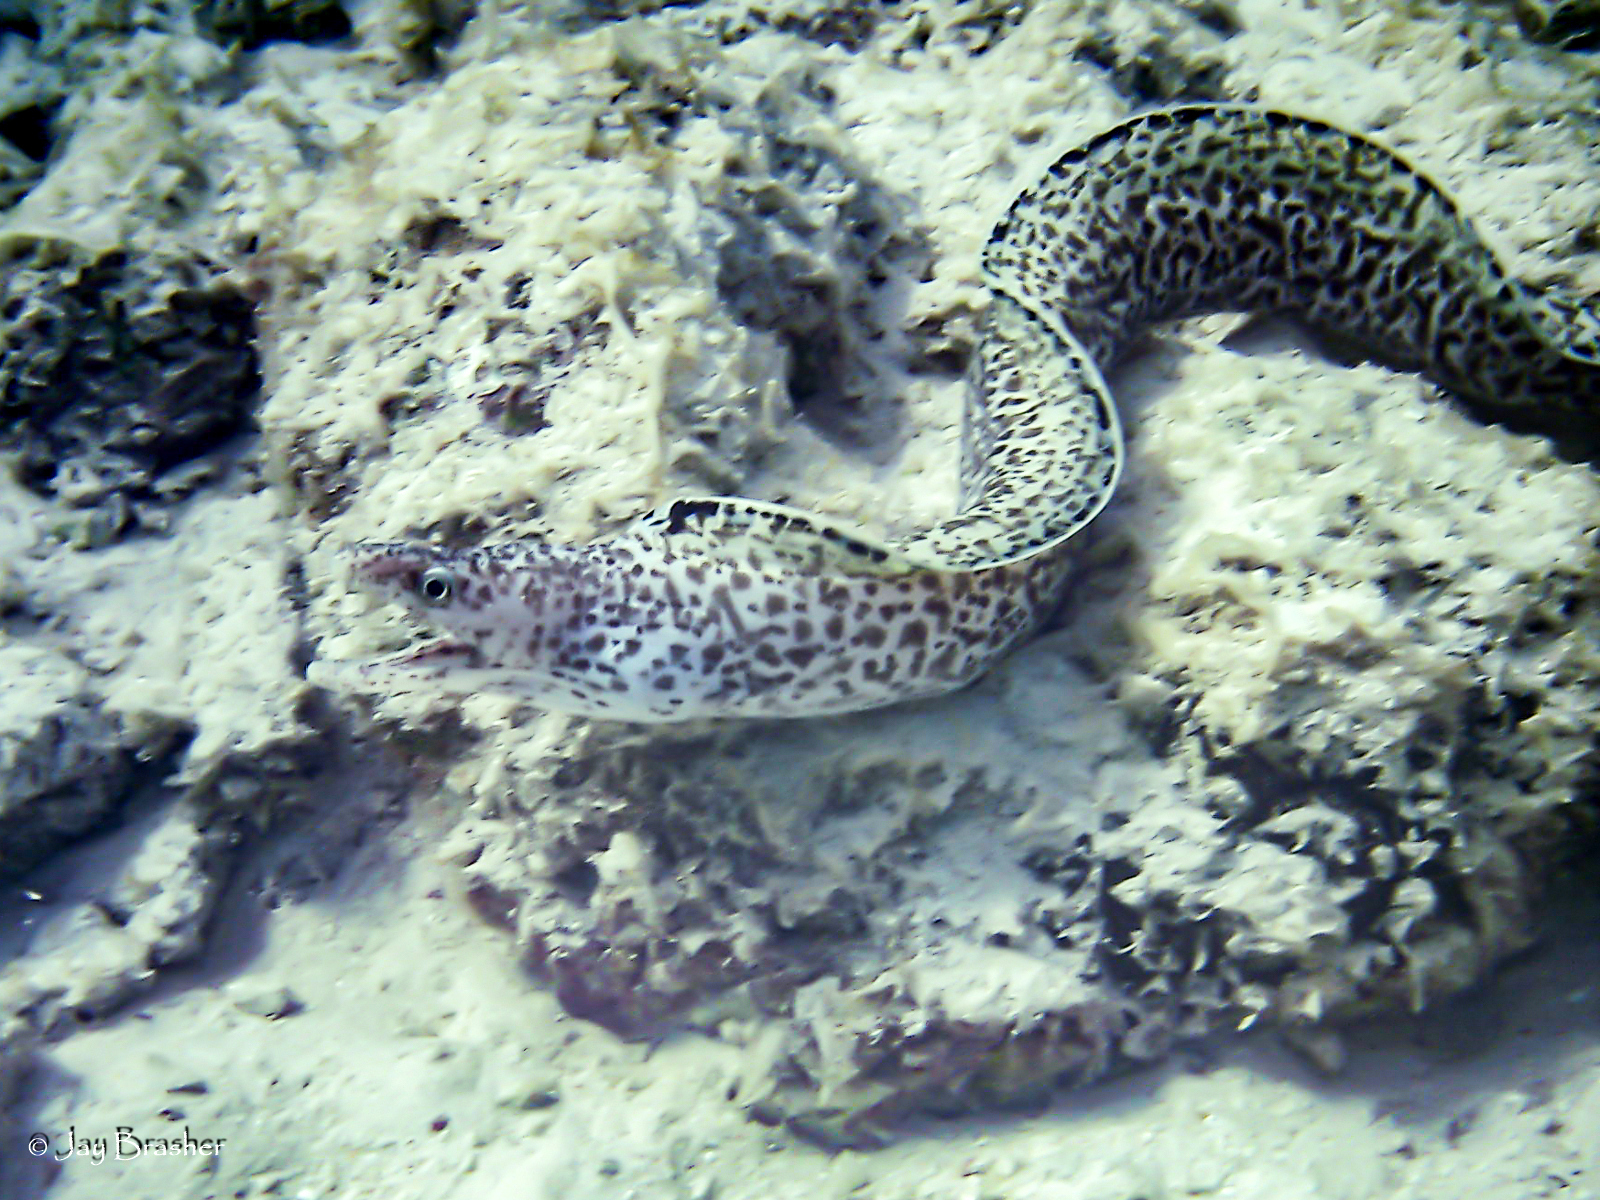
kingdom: Animalia
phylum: Chordata
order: Anguilliformes
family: Muraenidae
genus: Gymnothorax
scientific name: Gymnothorax moringa
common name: Spotted moray
